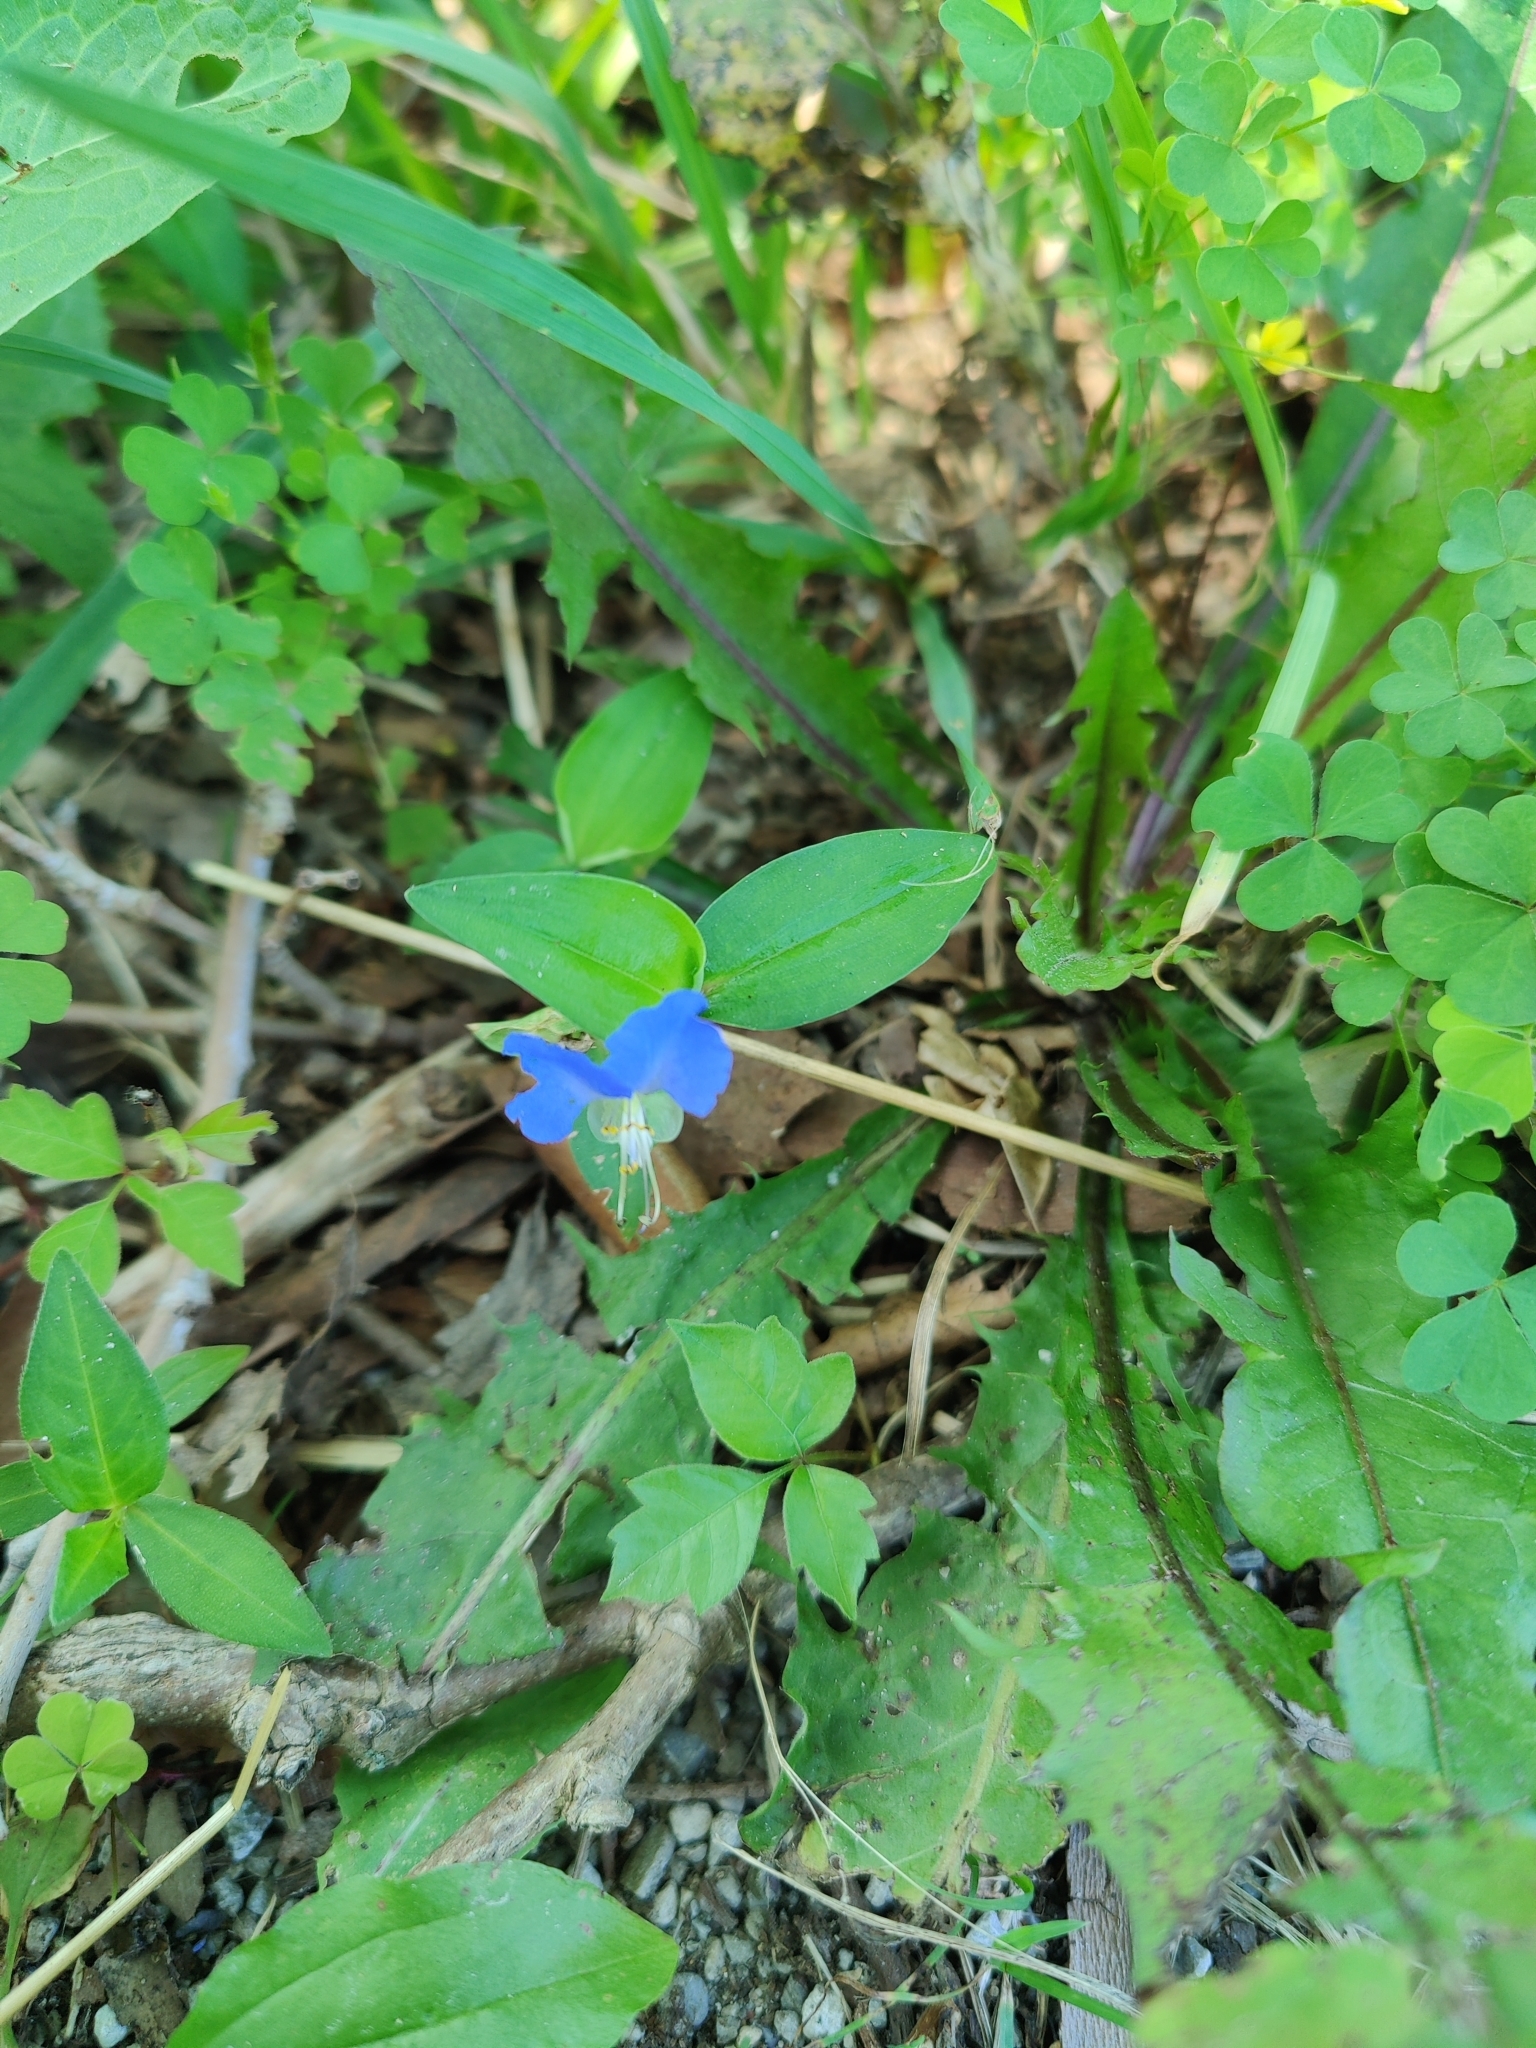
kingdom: Plantae
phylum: Tracheophyta
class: Liliopsida
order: Commelinales
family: Commelinaceae
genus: Commelina
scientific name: Commelina communis
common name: Asiatic dayflower
